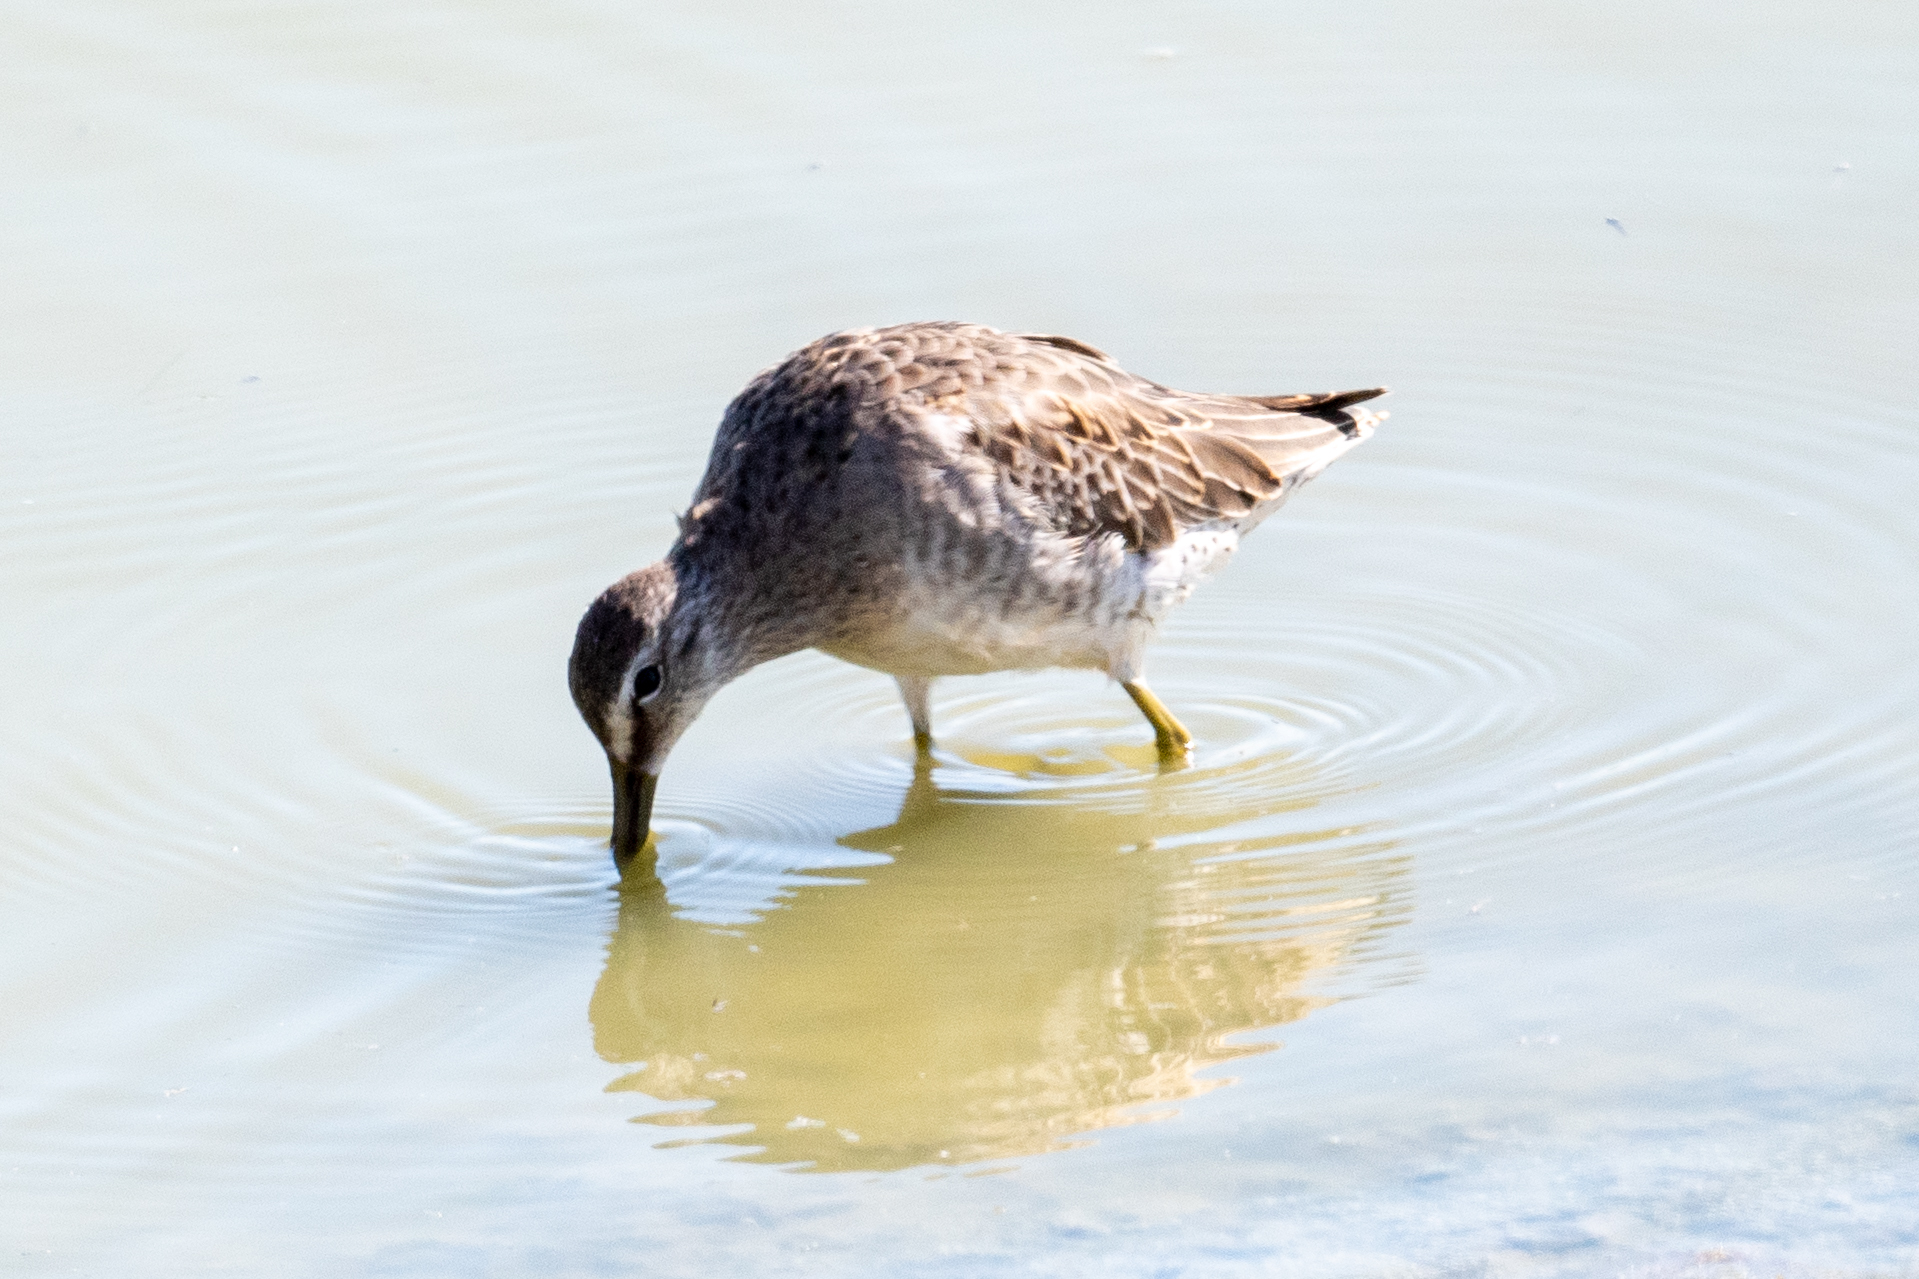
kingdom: Animalia
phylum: Chordata
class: Aves
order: Charadriiformes
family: Scolopacidae
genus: Limnodromus
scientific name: Limnodromus scolopaceus
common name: Long-billed dowitcher
